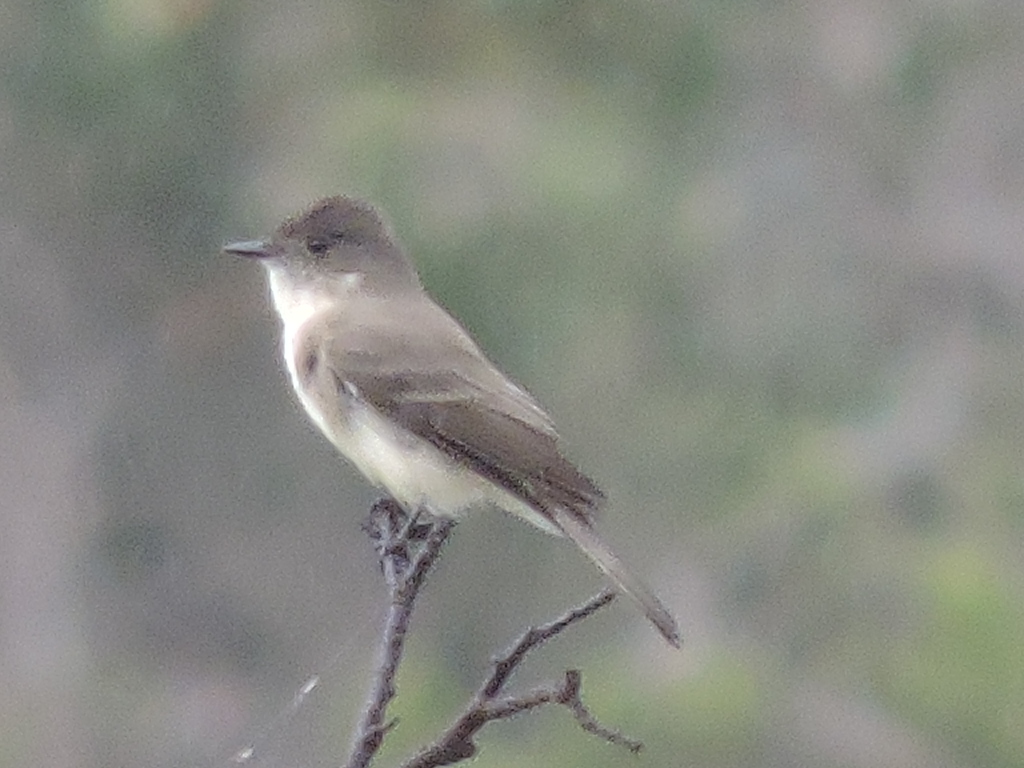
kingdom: Animalia
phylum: Chordata
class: Aves
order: Passeriformes
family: Tyrannidae
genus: Sayornis
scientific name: Sayornis phoebe
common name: Eastern phoebe
